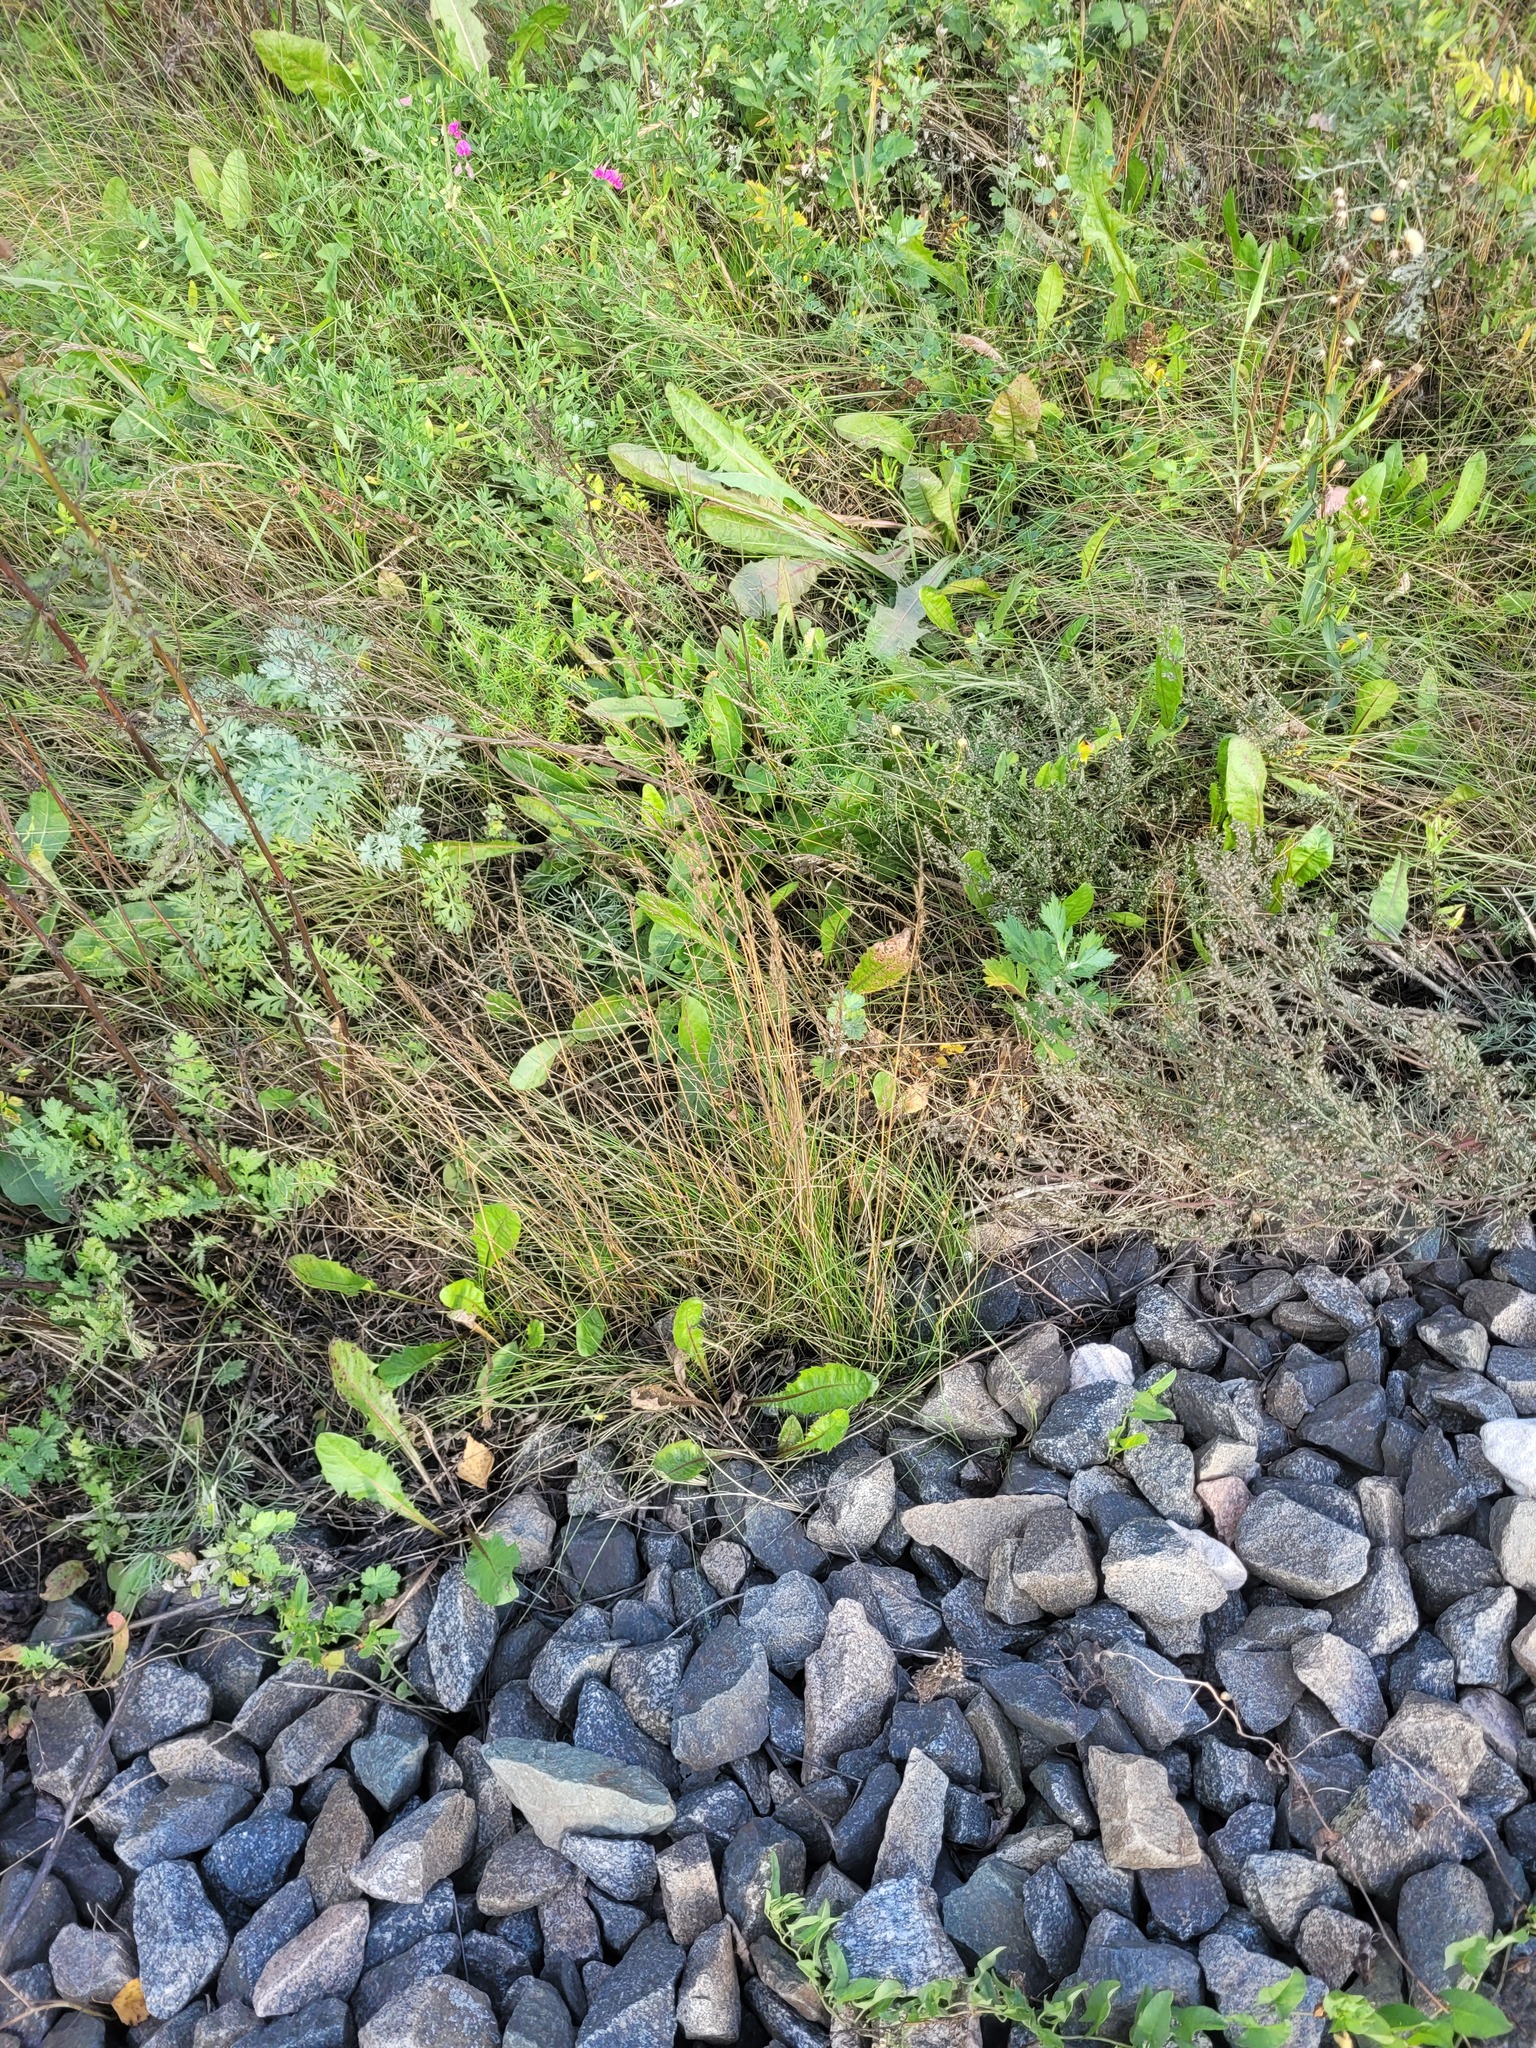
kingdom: Plantae
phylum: Tracheophyta
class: Liliopsida
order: Poales
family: Poaceae
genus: Poa
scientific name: Poa angustifolia
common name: Narrow-leaved meadow-grass
